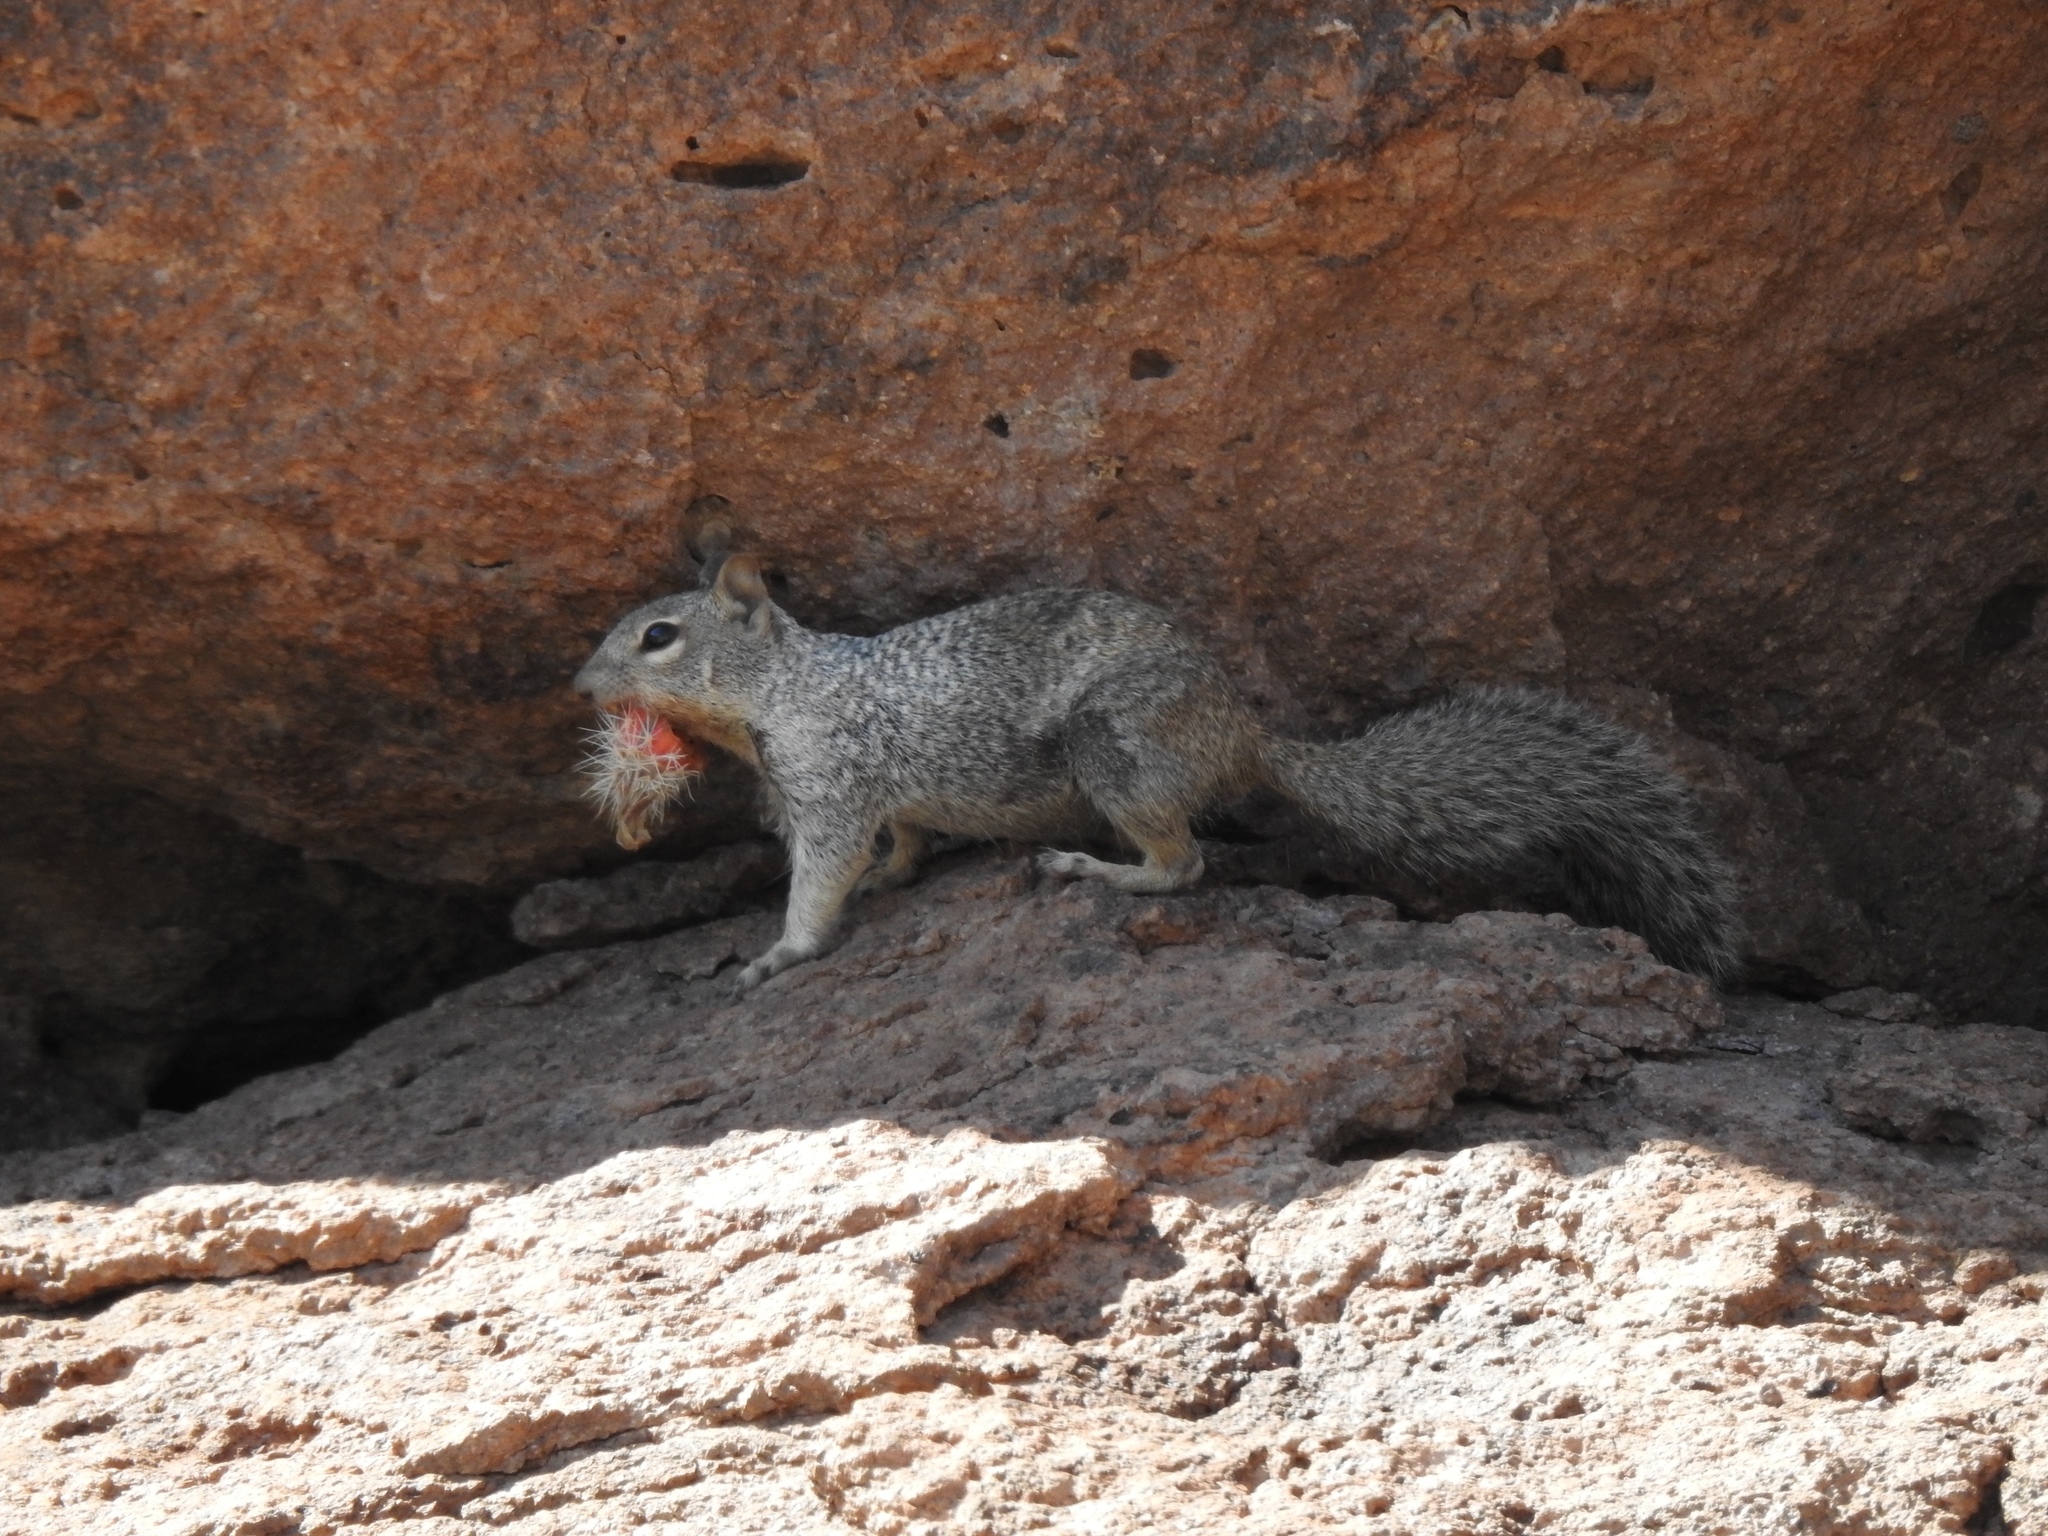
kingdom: Animalia
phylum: Chordata
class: Mammalia
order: Rodentia
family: Sciuridae
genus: Otospermophilus
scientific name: Otospermophilus variegatus
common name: Rock squirrel
